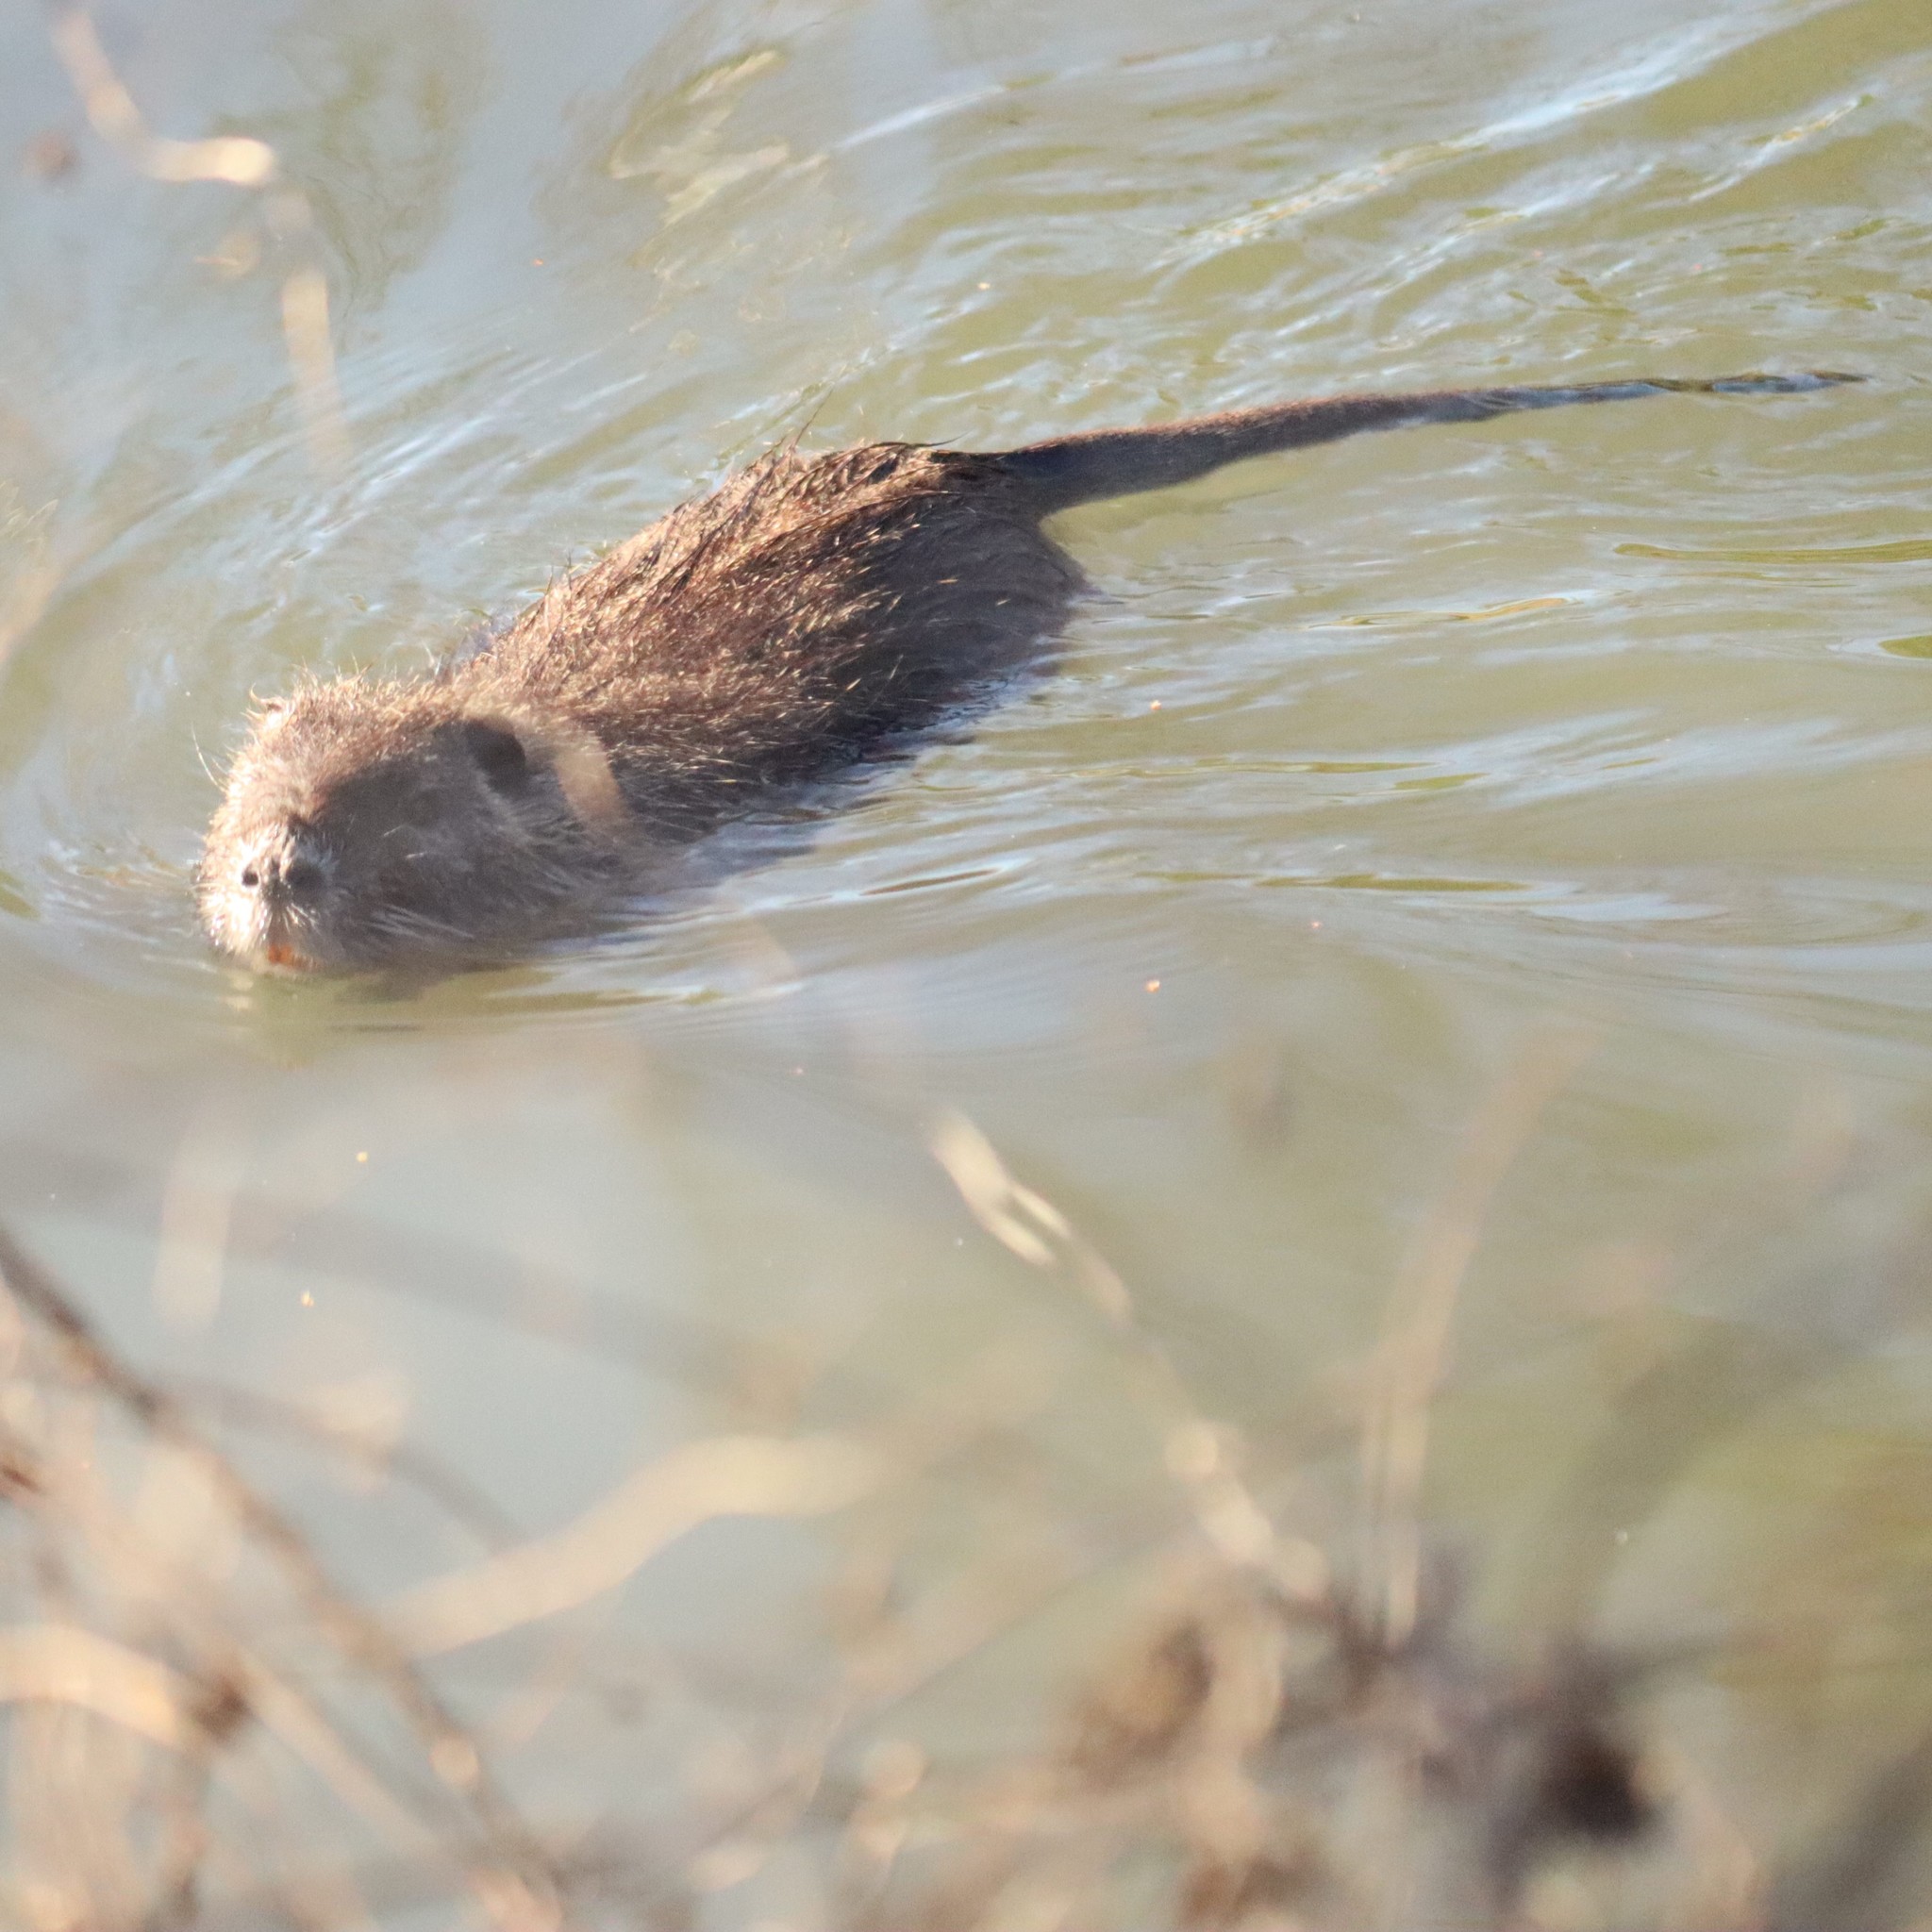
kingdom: Animalia
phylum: Chordata
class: Mammalia
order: Rodentia
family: Myocastoridae
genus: Myocastor
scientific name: Myocastor coypus
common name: Coypu
